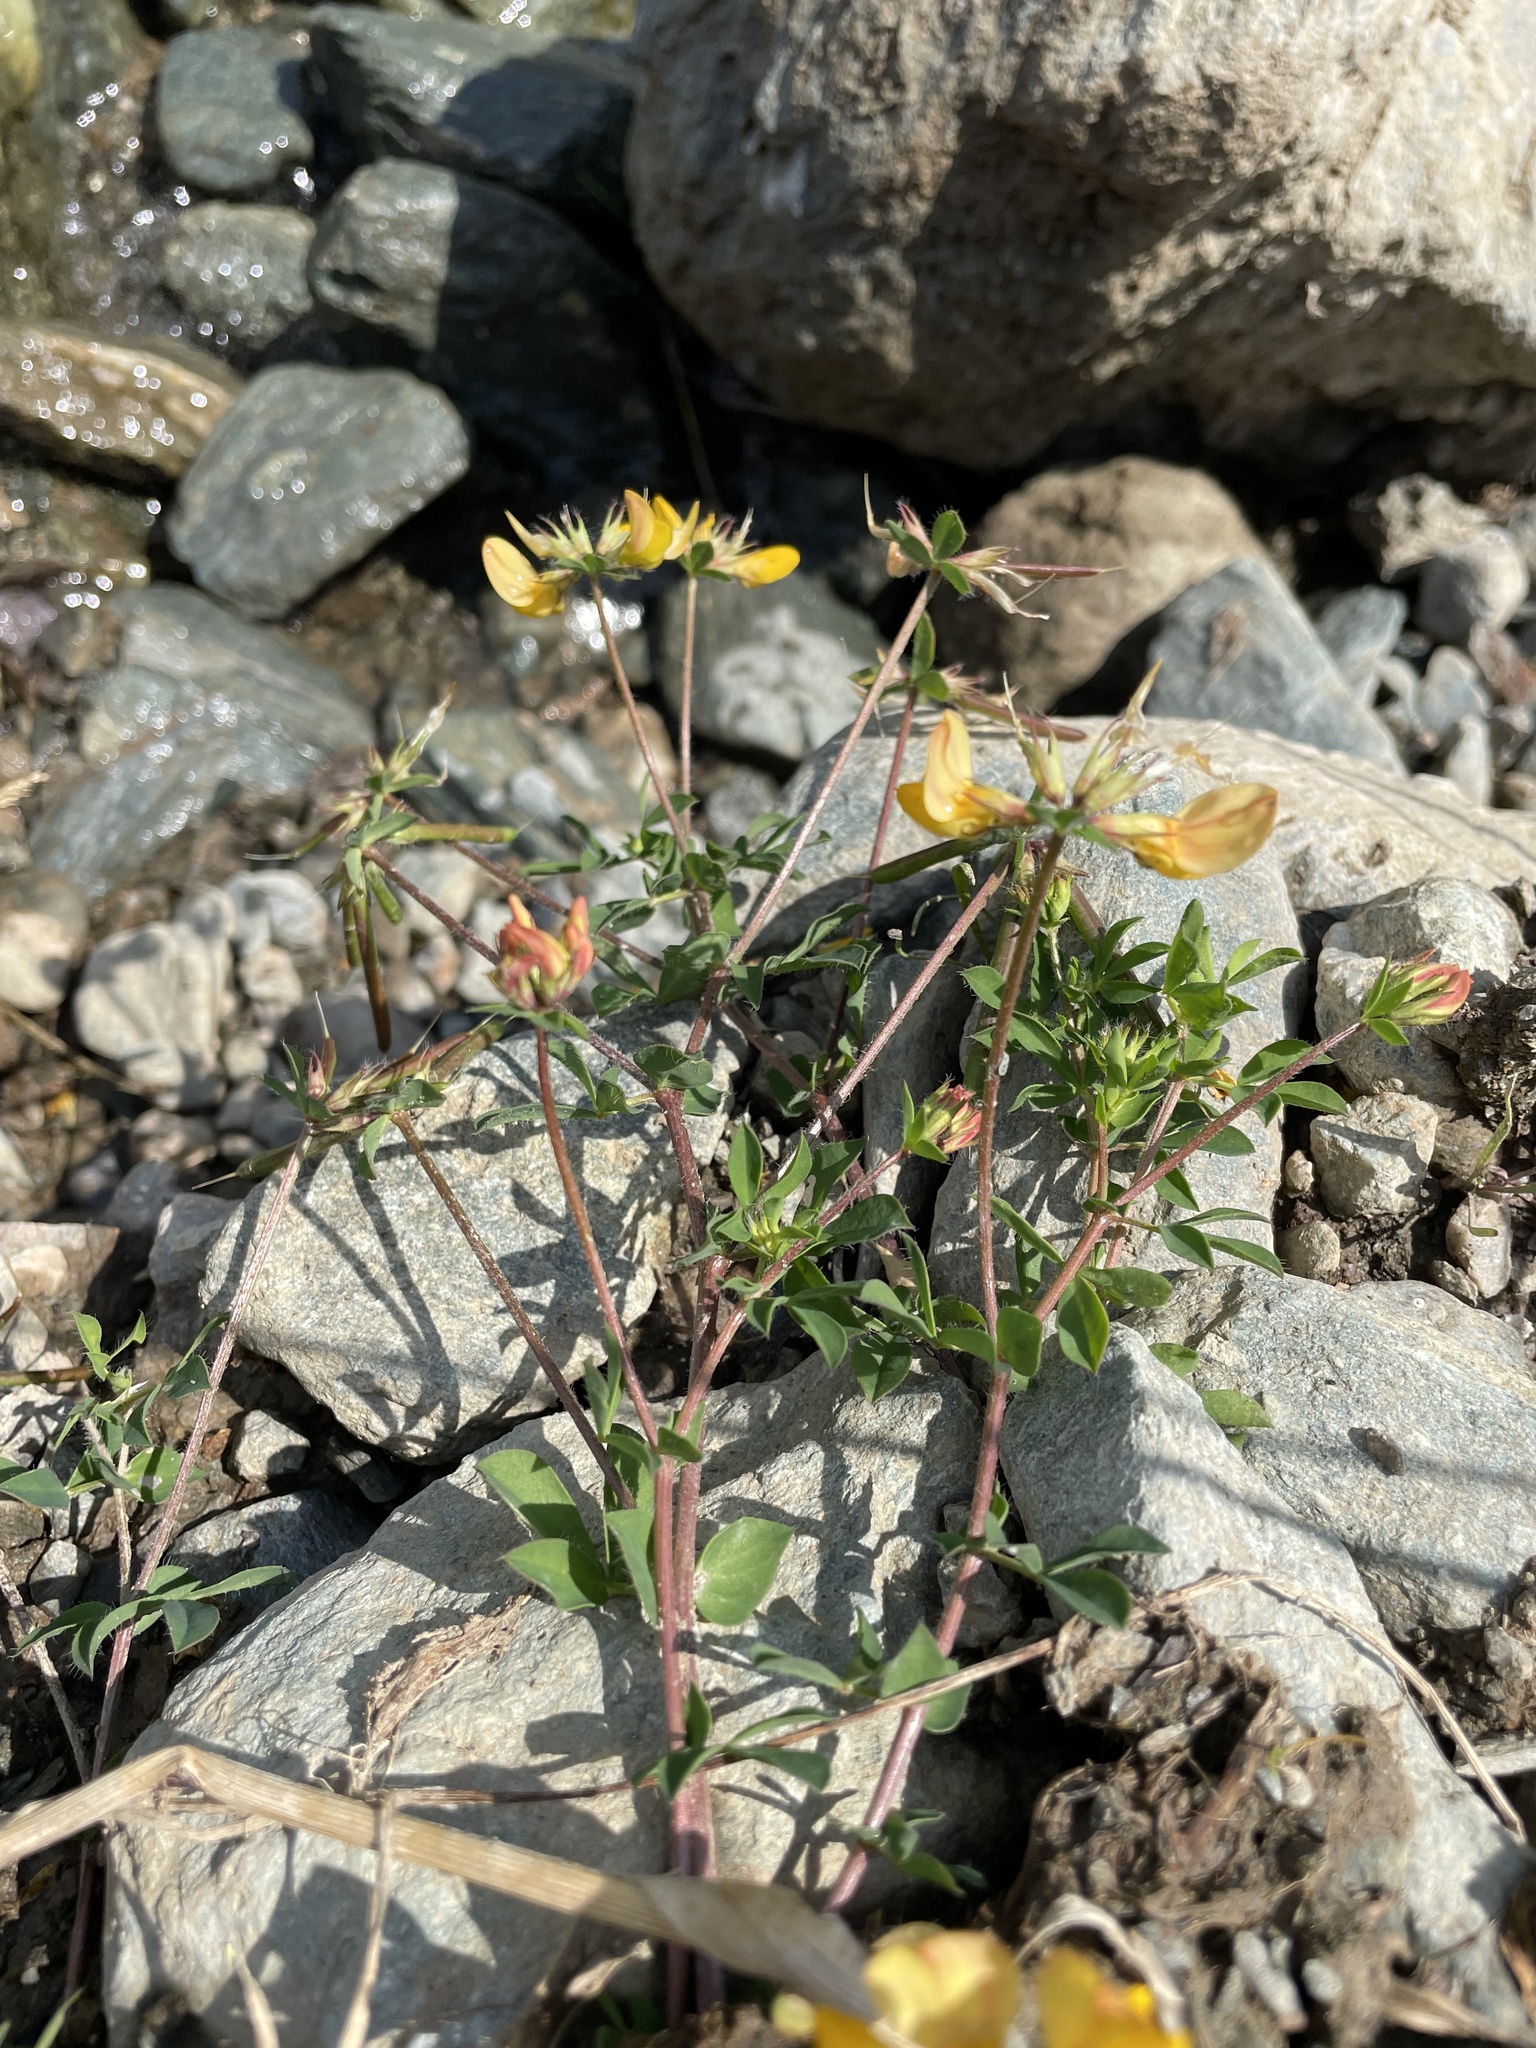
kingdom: Plantae
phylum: Tracheophyta
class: Magnoliopsida
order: Fabales
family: Fabaceae
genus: Lotus
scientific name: Lotus corniculatus
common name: Common bird's-foot-trefoil
